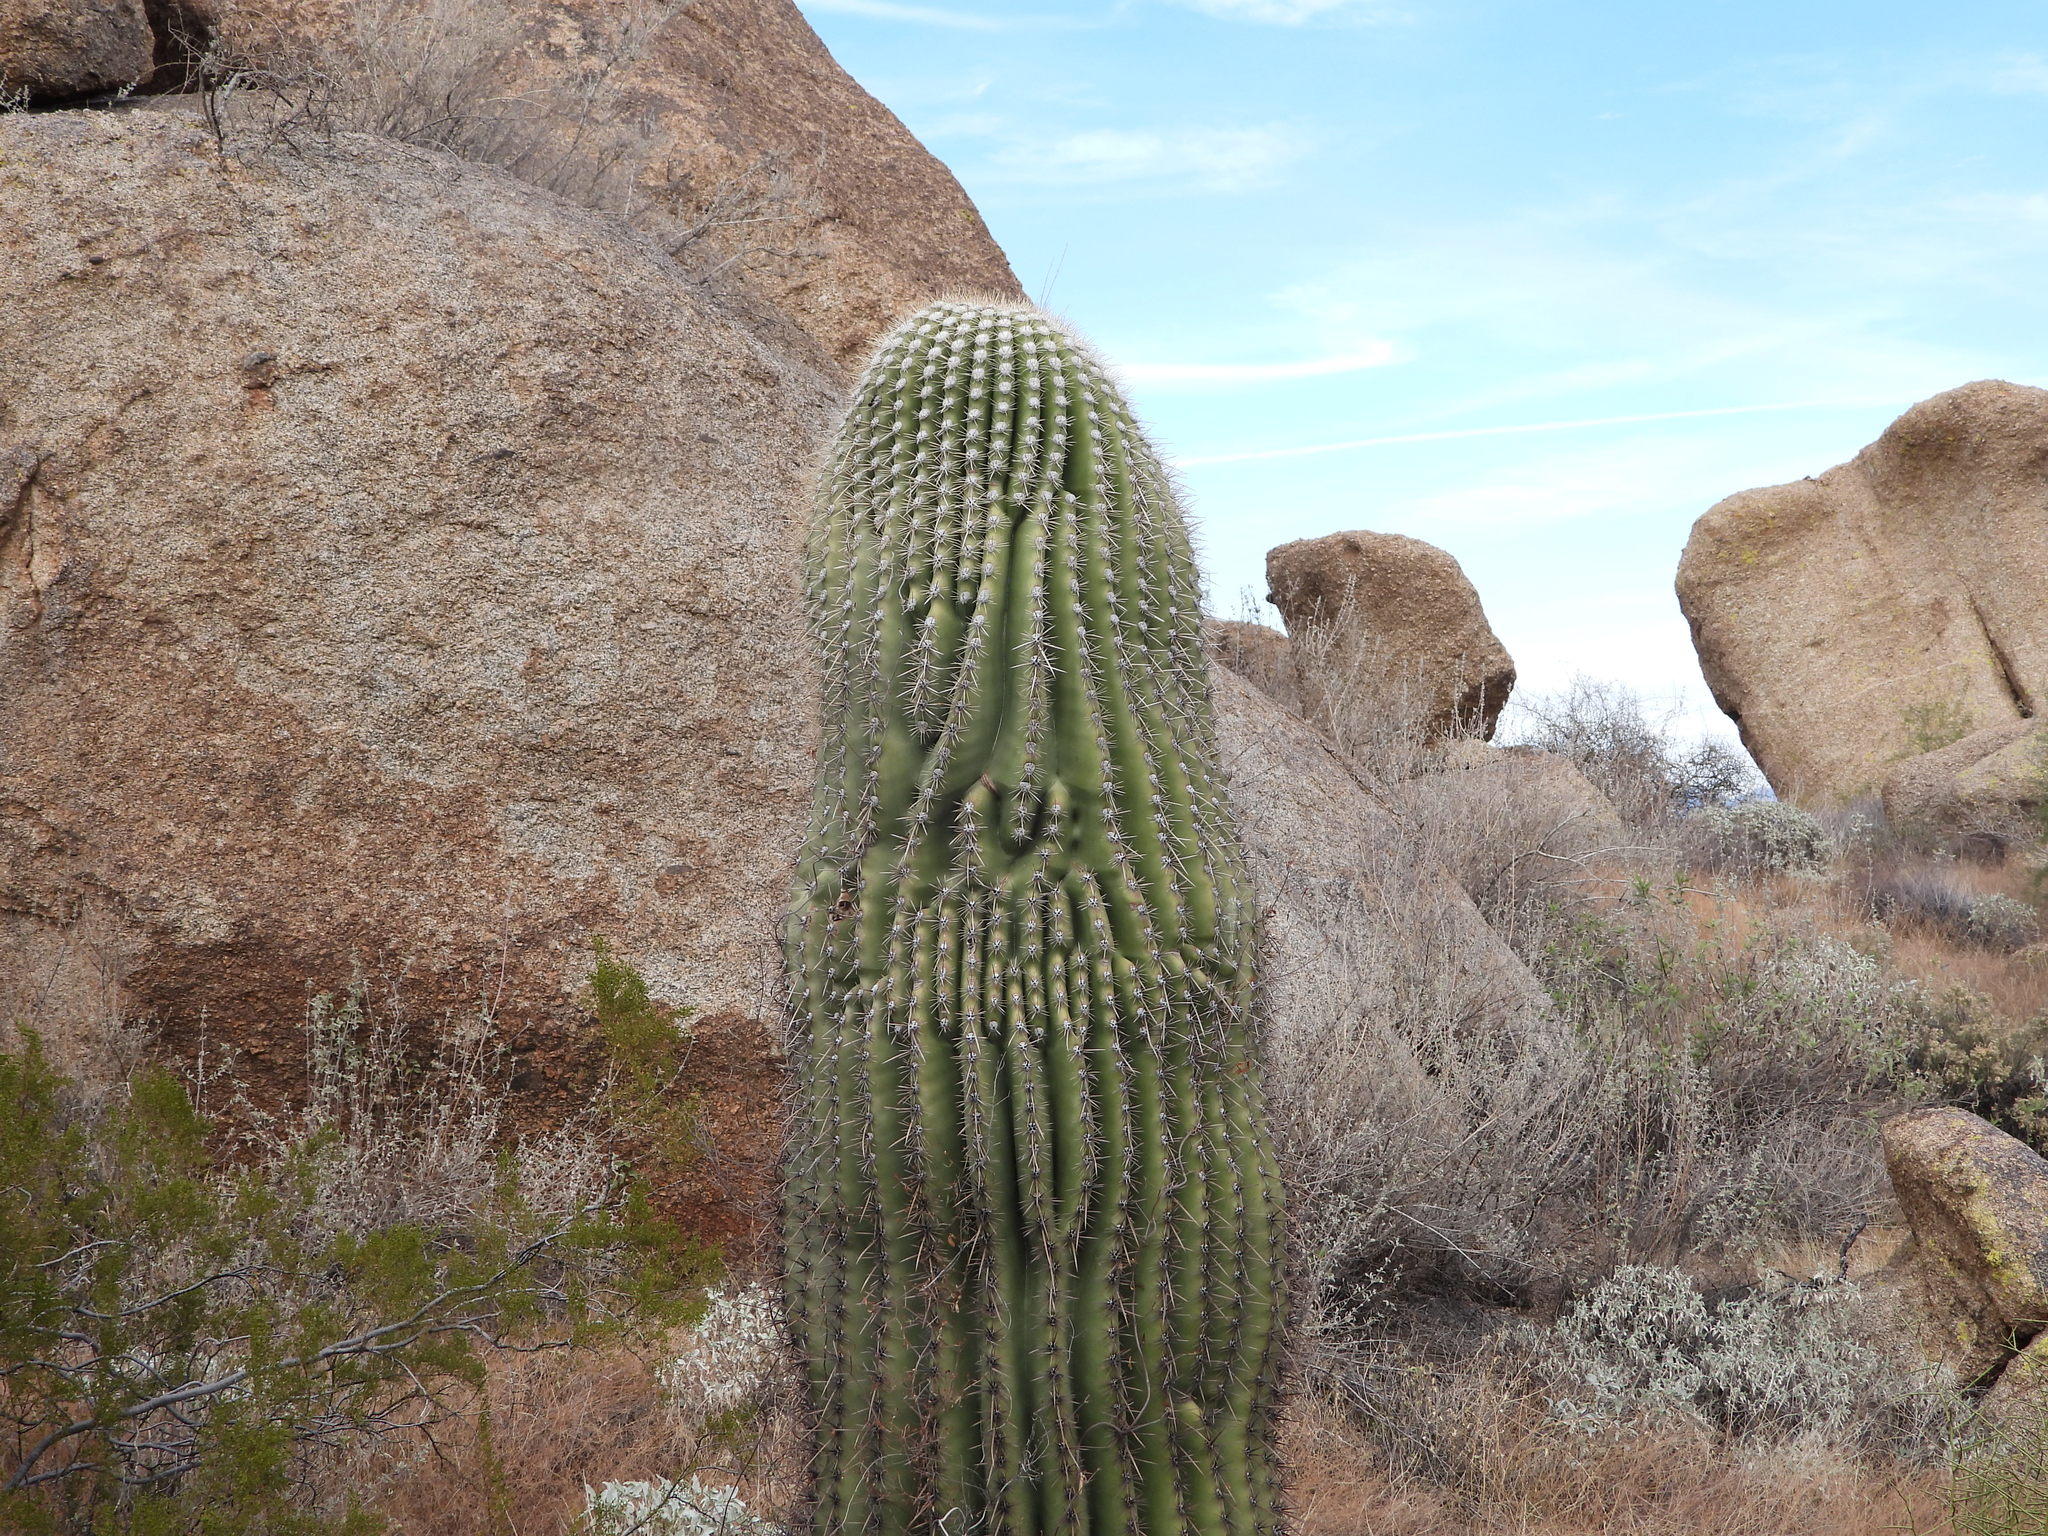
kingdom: Plantae
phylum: Tracheophyta
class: Magnoliopsida
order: Caryophyllales
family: Cactaceae
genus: Carnegiea
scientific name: Carnegiea gigantea
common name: Saguaro
